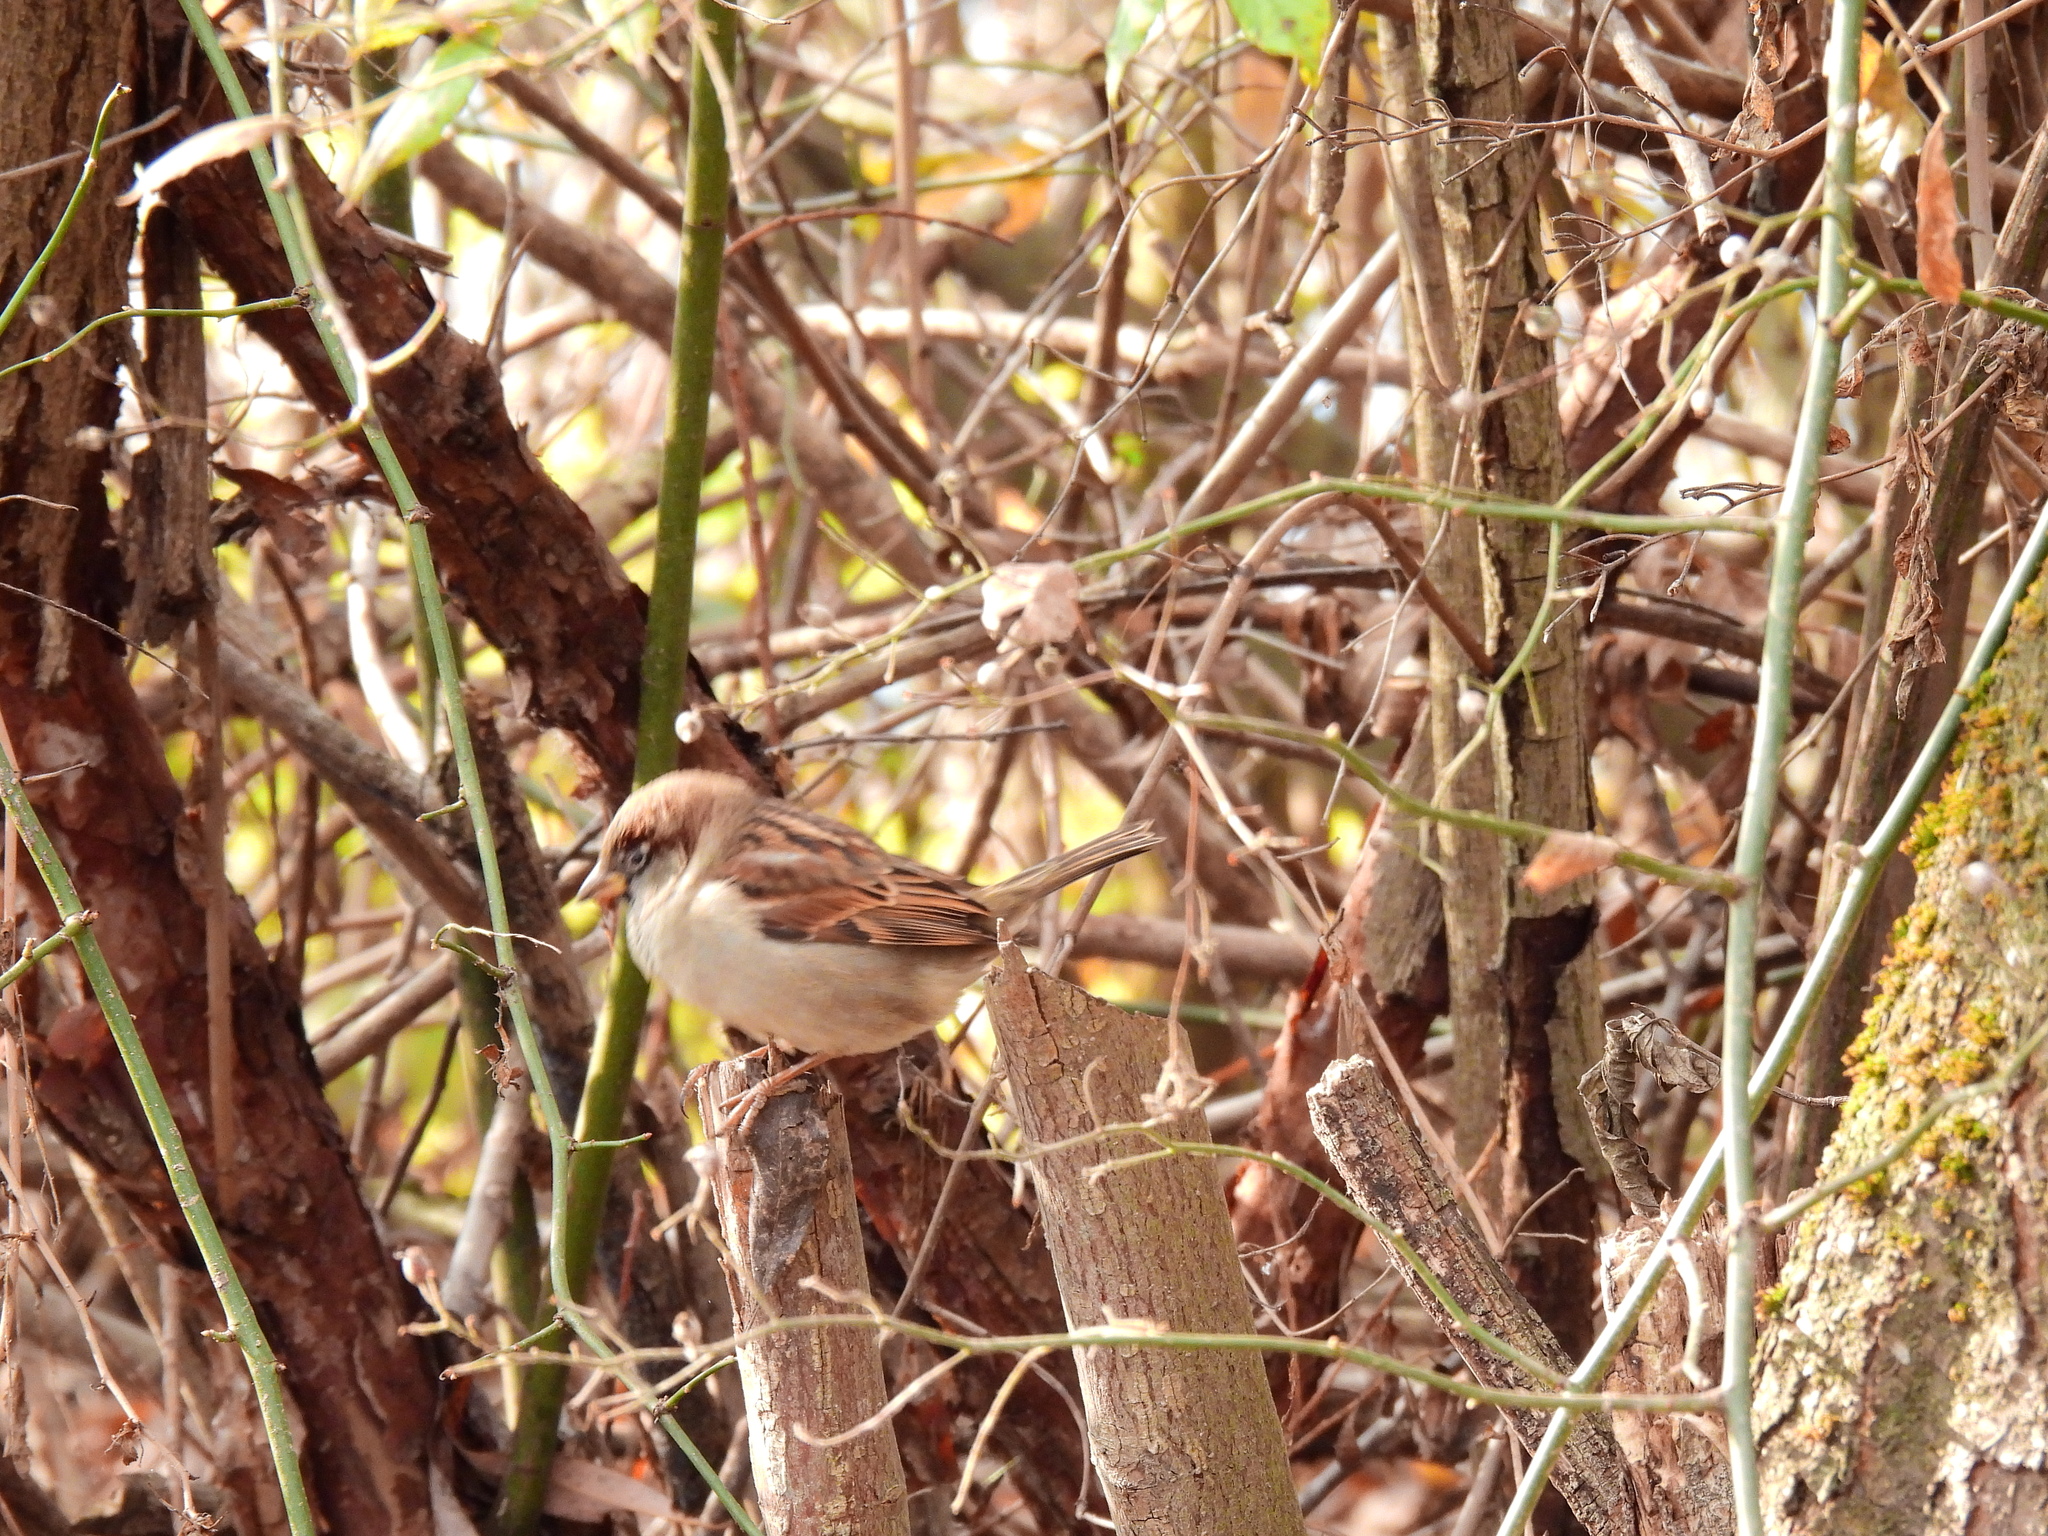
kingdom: Animalia
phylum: Chordata
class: Aves
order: Passeriformes
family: Passeridae
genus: Passer
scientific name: Passer domesticus
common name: House sparrow
